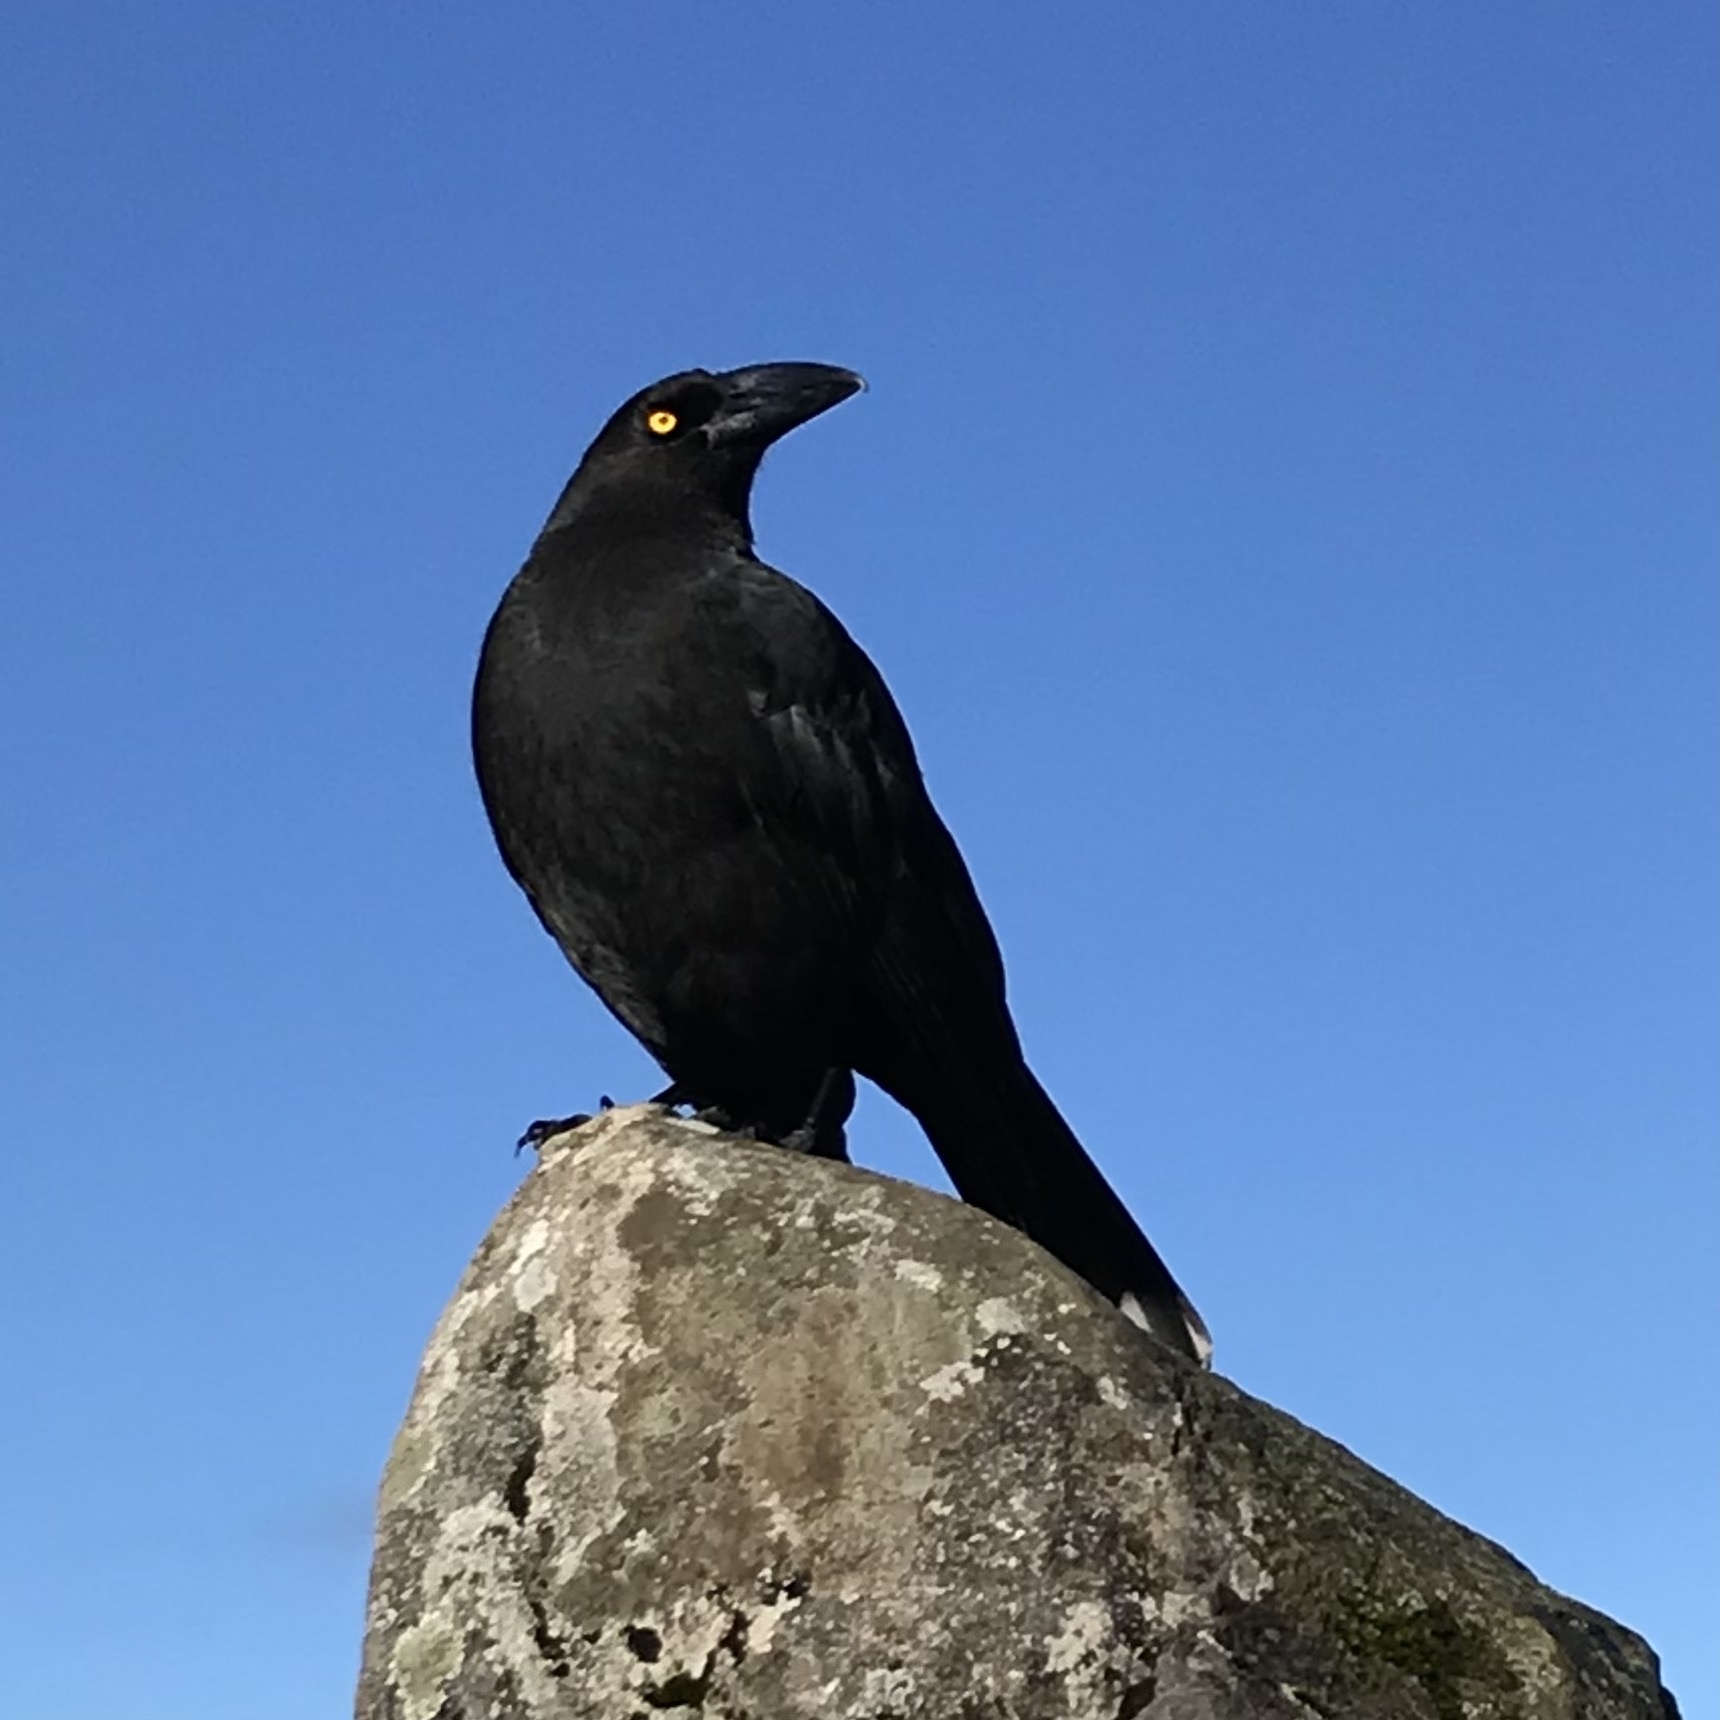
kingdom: Animalia
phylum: Chordata
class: Aves
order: Passeriformes
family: Cracticidae
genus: Strepera
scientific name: Strepera fuliginosa
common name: Black currawong
